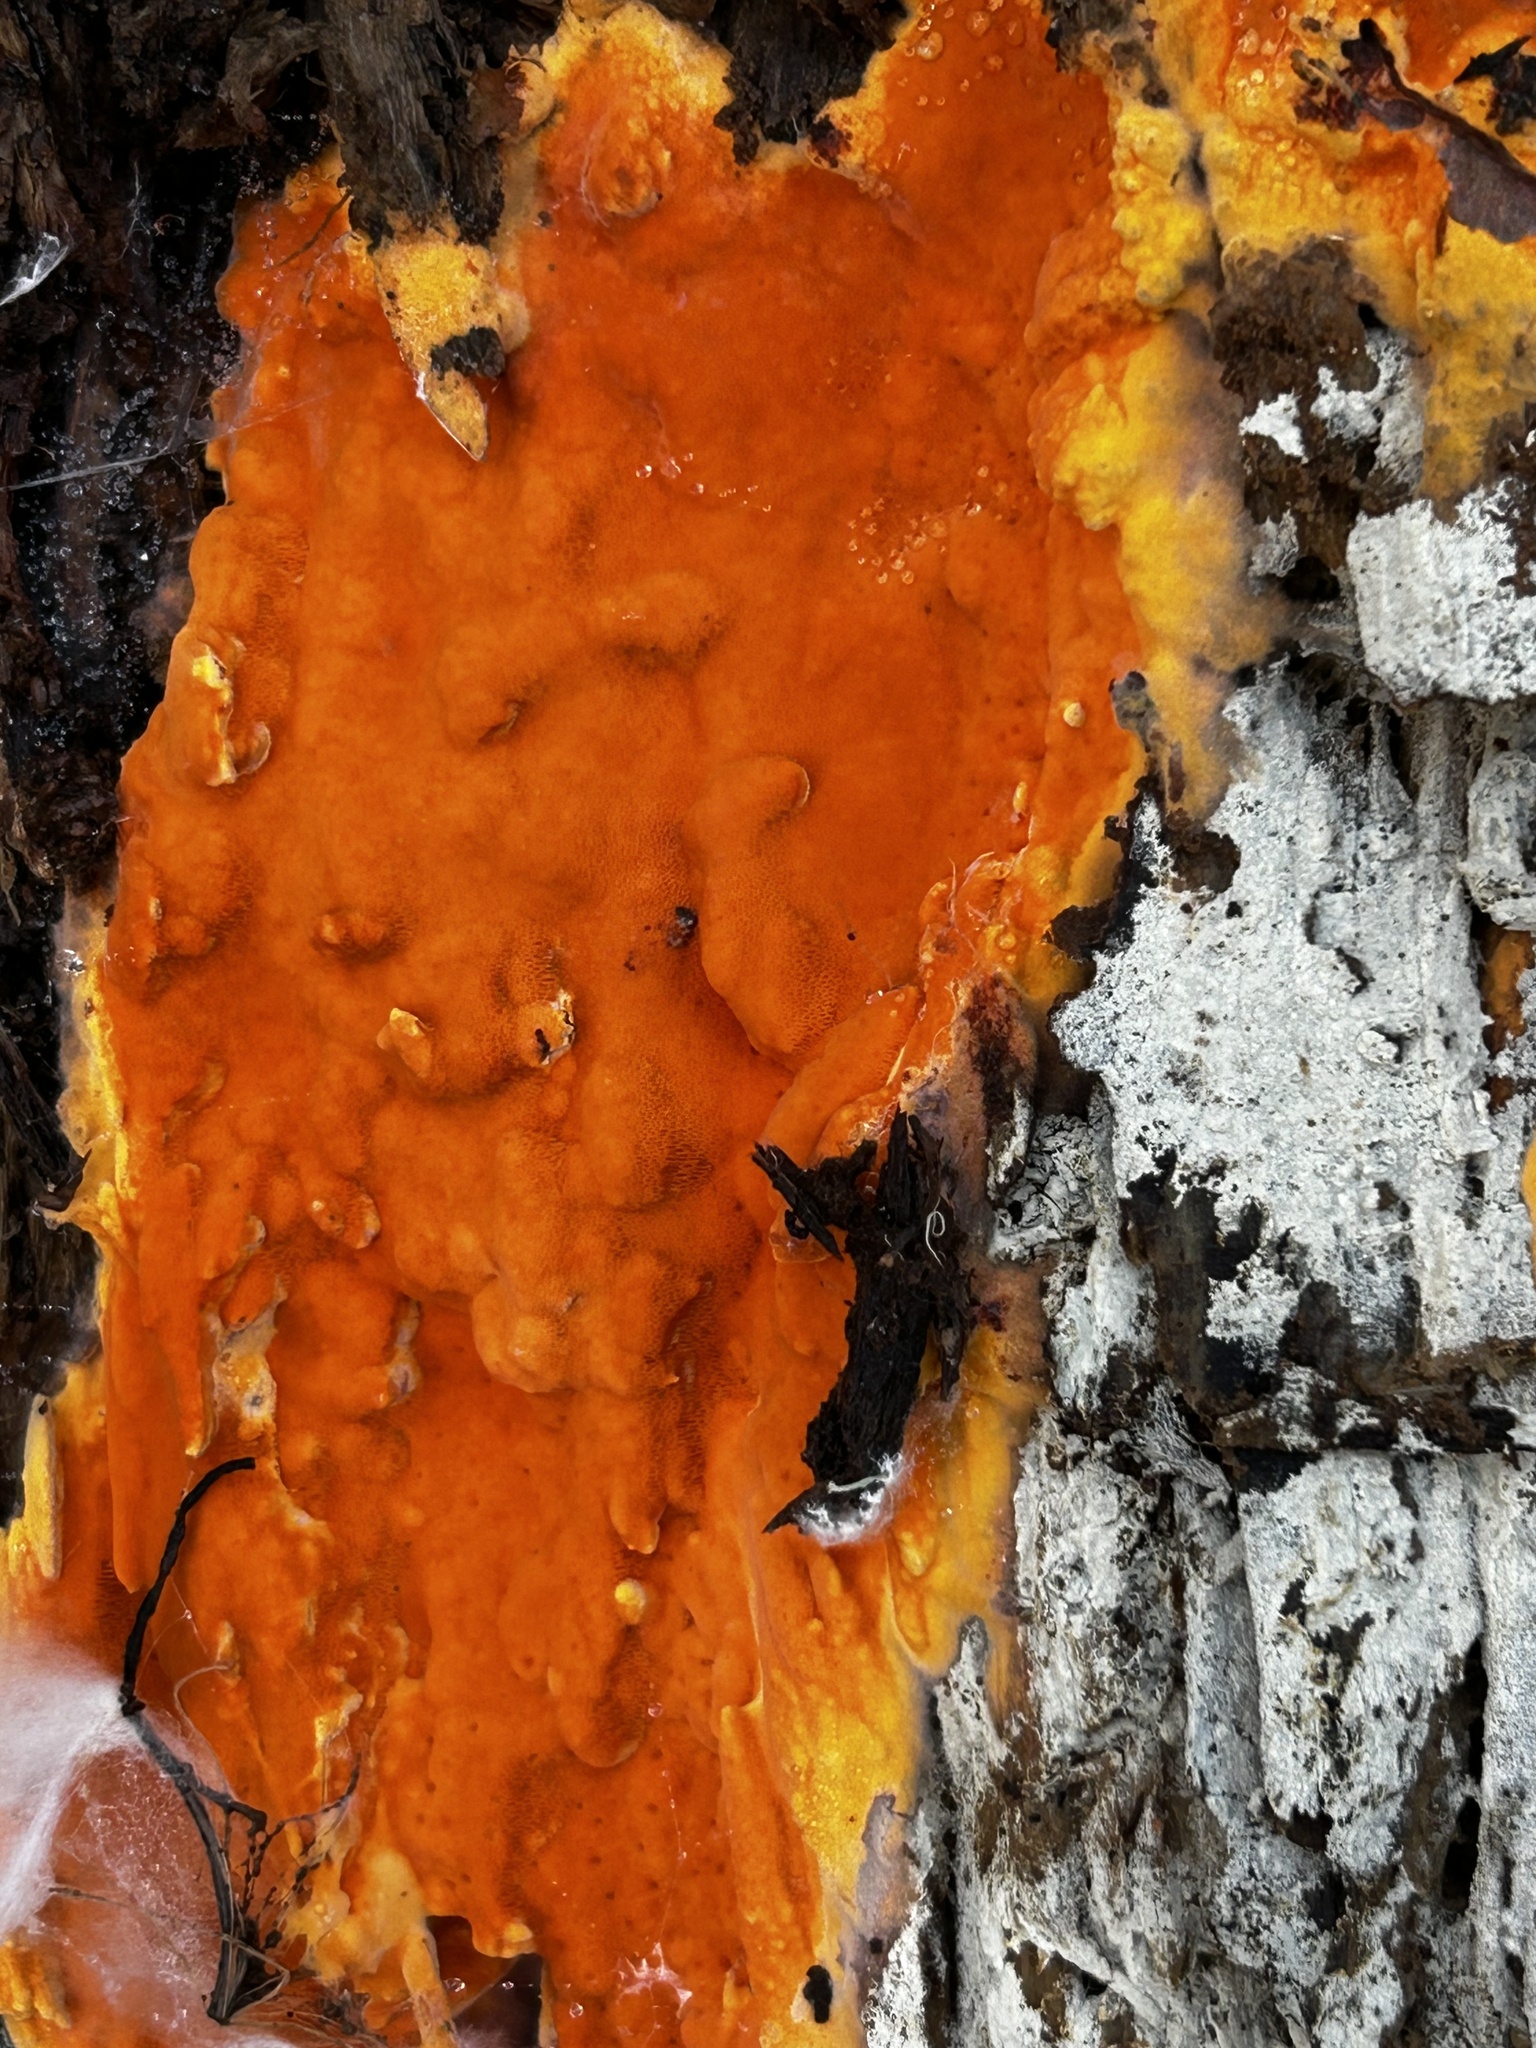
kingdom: Fungi
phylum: Basidiomycota
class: Agaricomycetes
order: Polyporales
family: Irpicaceae
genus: Ceriporia
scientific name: Ceriporia spissa
